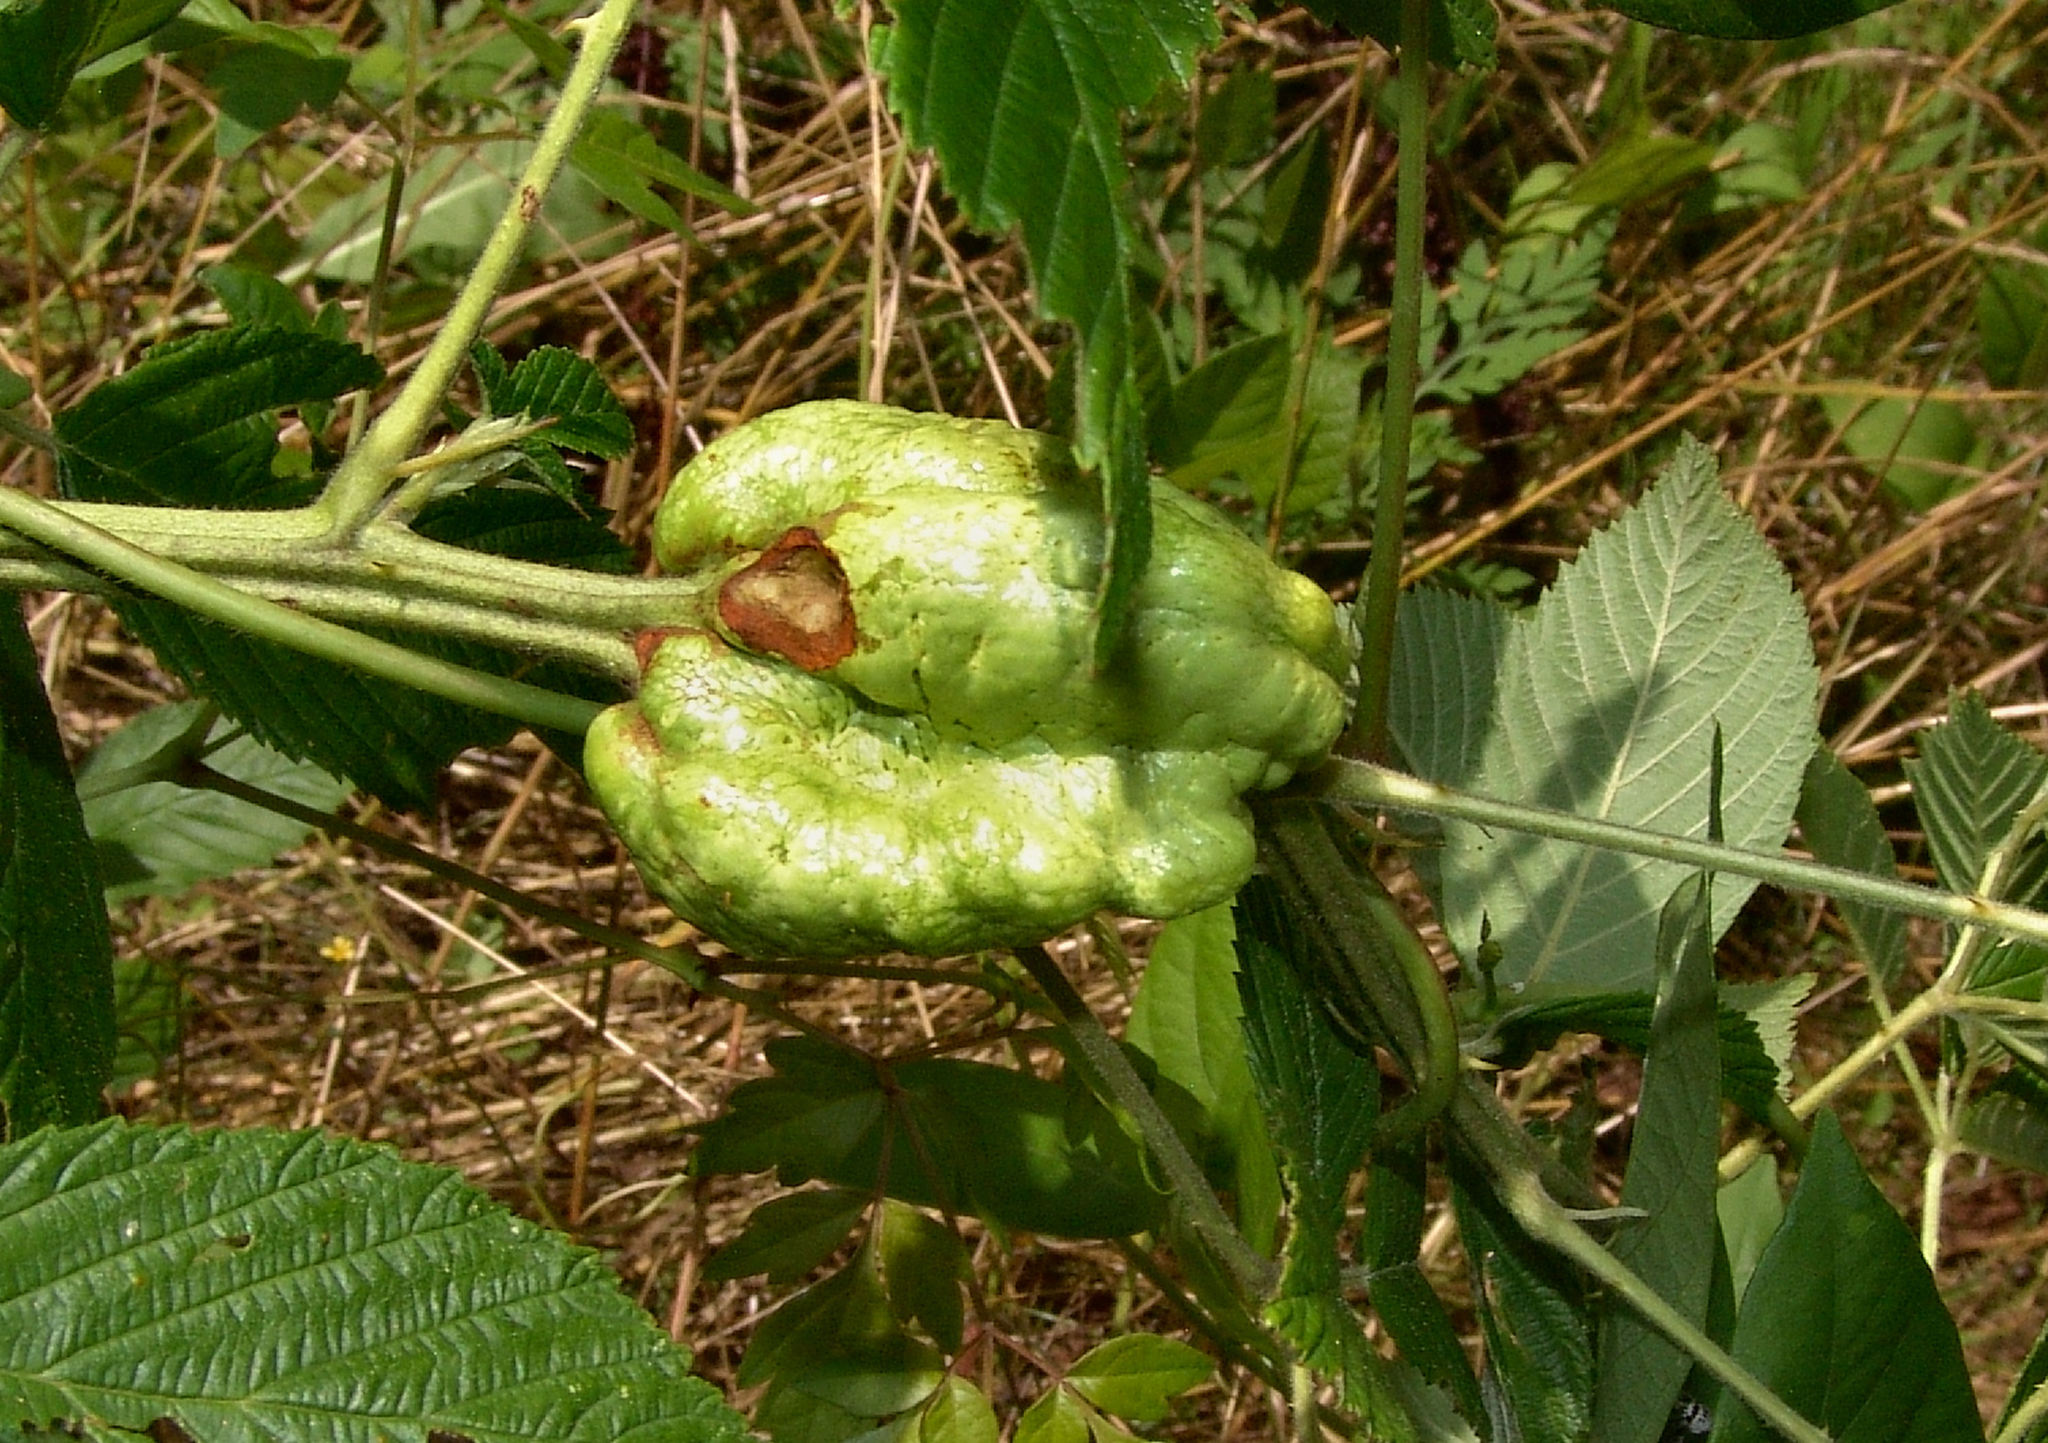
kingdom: Animalia
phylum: Arthropoda
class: Insecta
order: Hymenoptera
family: Cynipidae
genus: Diastrophus
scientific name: Diastrophus
